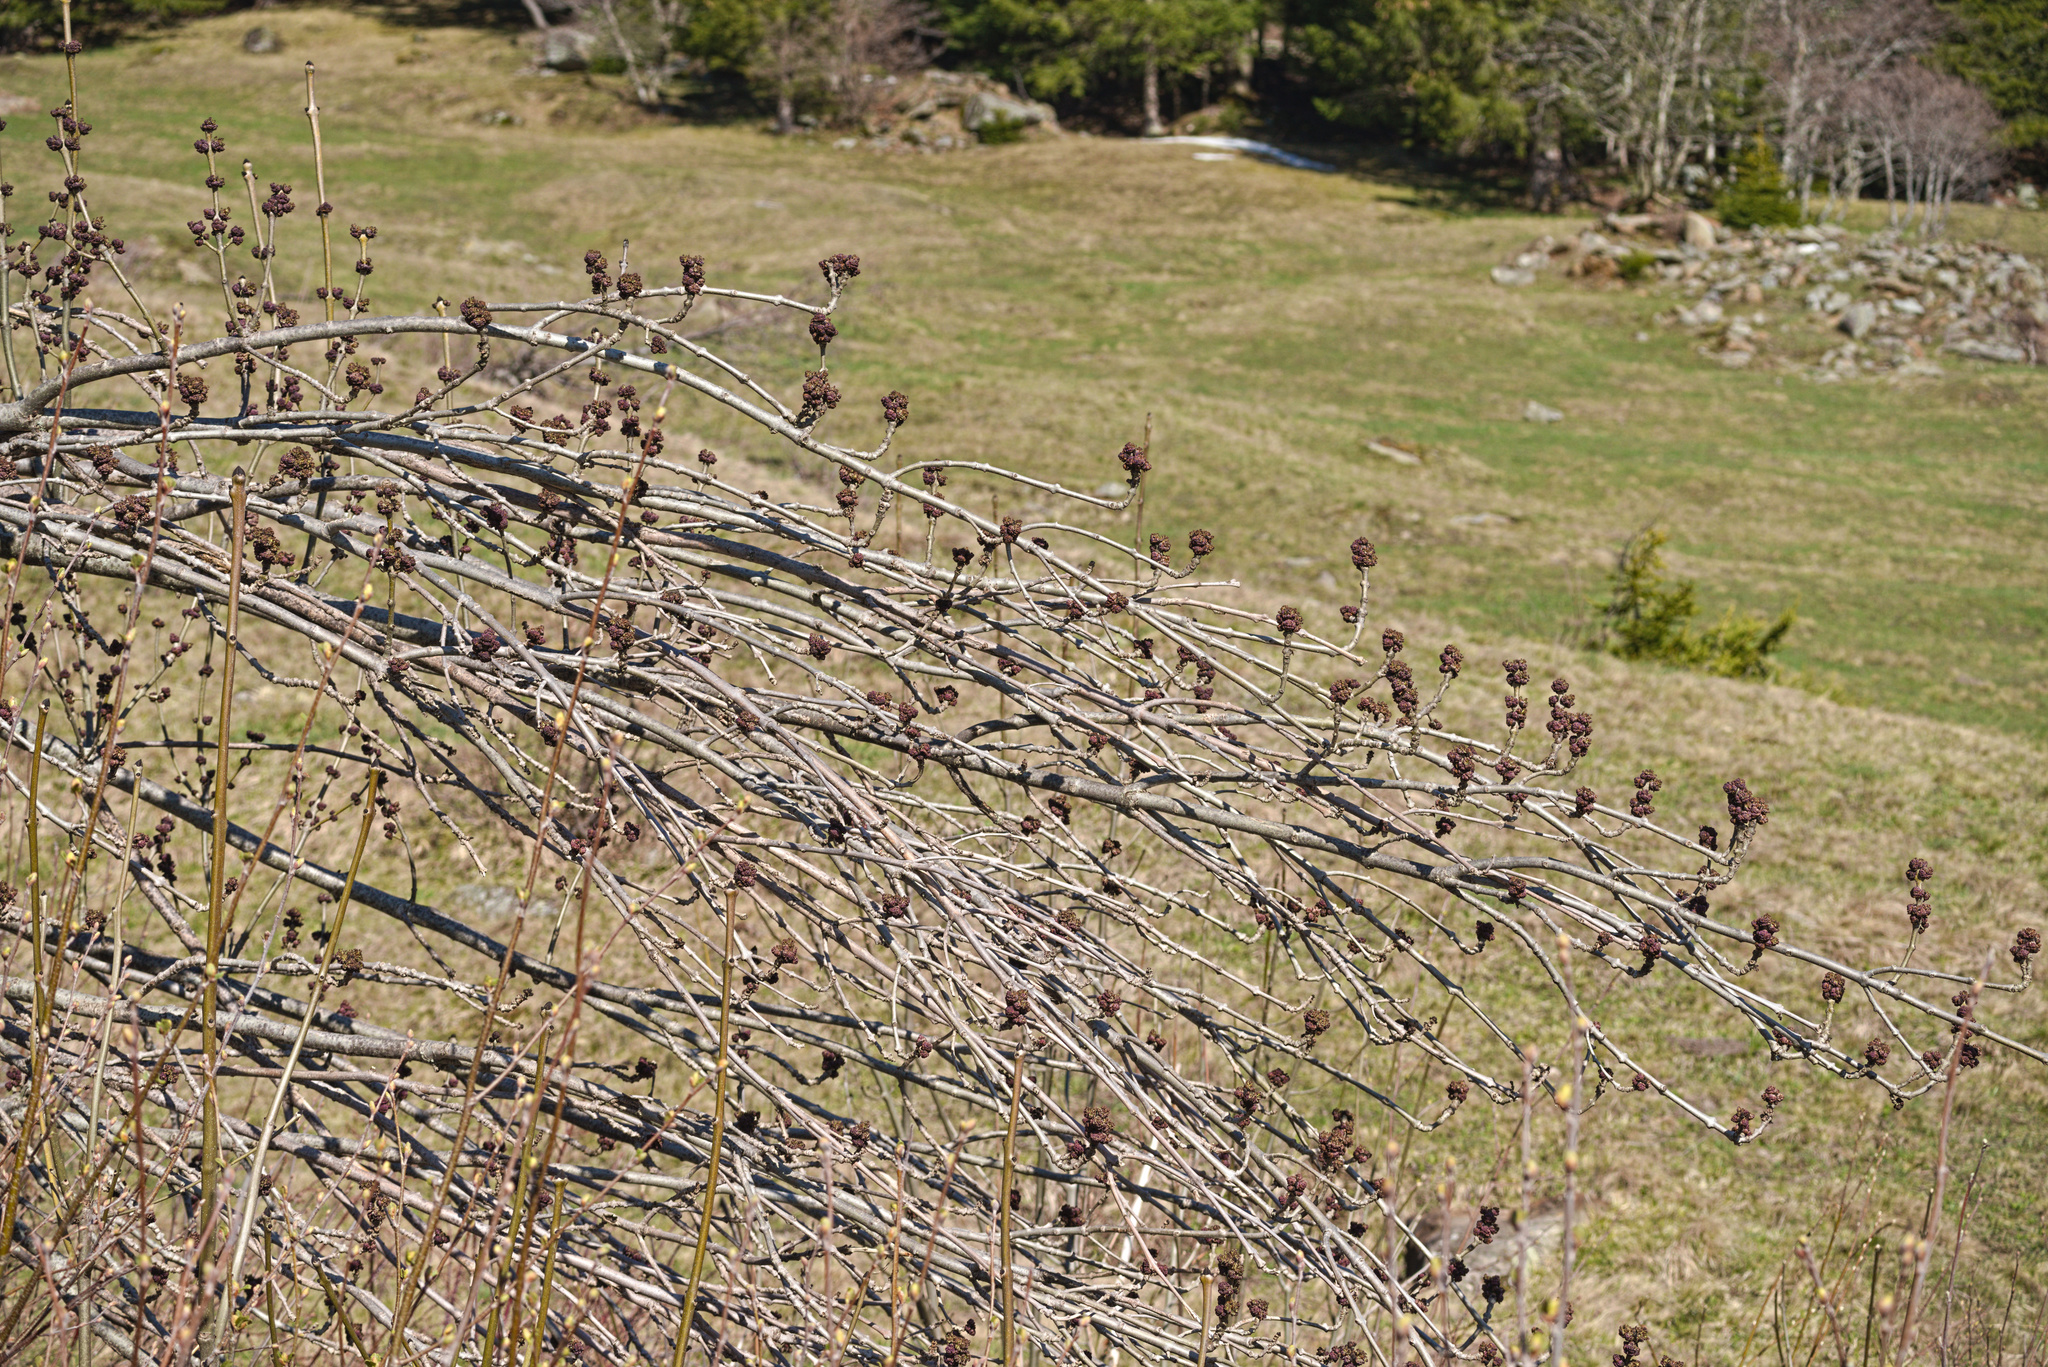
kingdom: Plantae
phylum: Tracheophyta
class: Magnoliopsida
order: Lamiales
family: Oleaceae
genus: Fraxinus
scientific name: Fraxinus excelsior
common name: European ash
